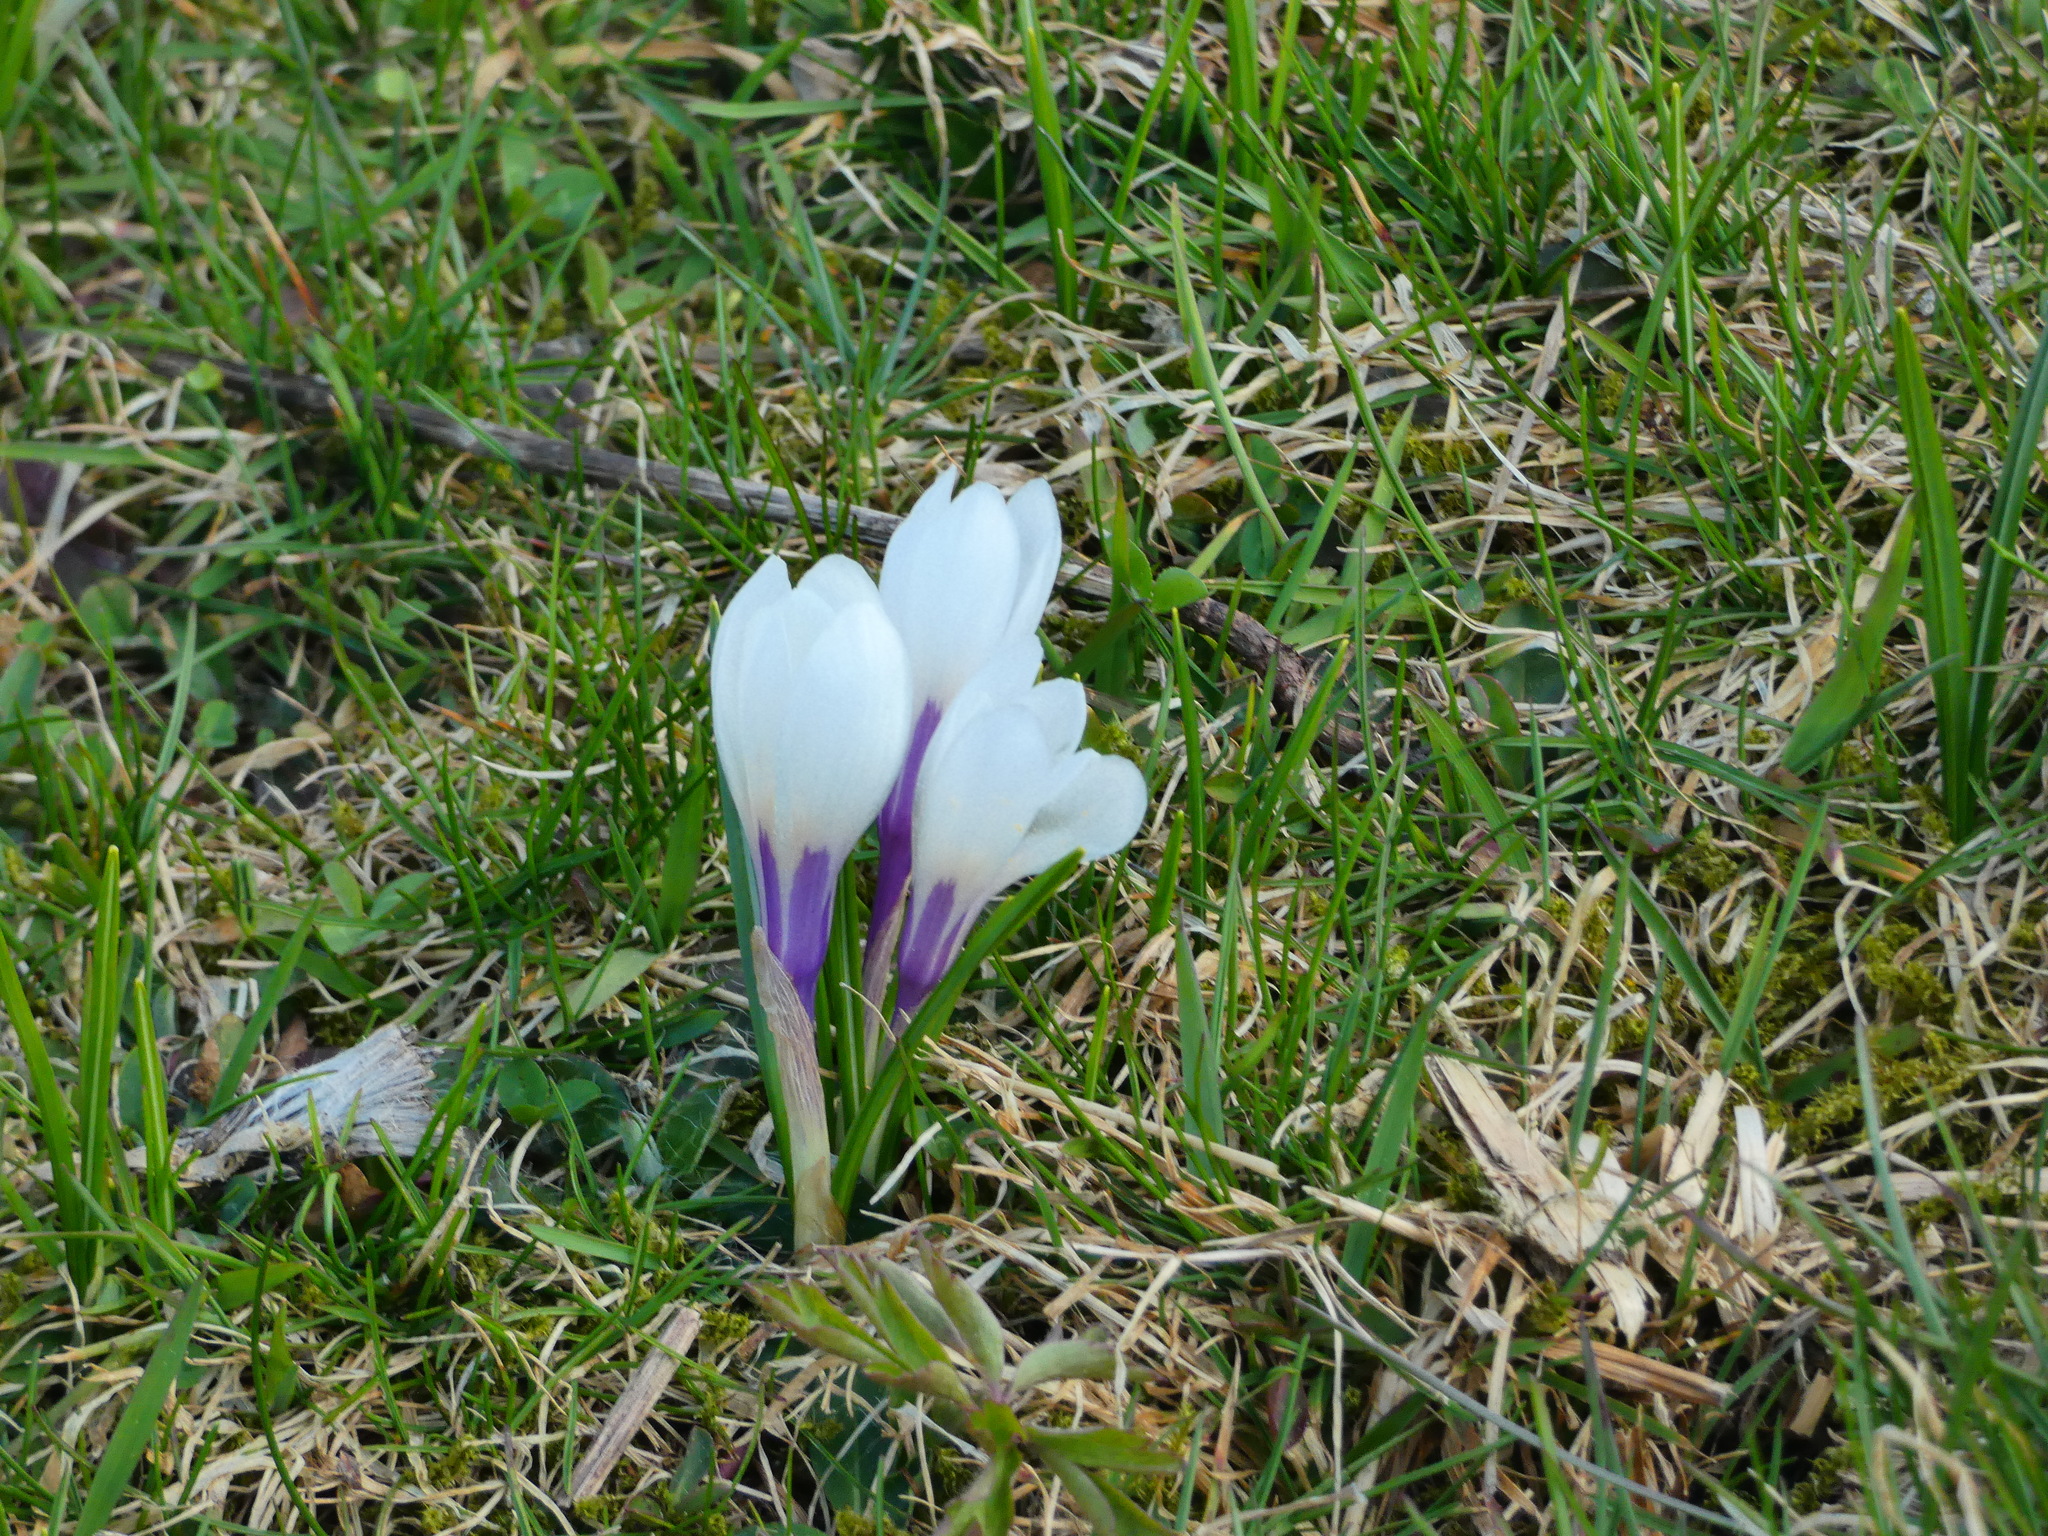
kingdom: Plantae
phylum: Tracheophyta
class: Liliopsida
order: Asparagales
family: Iridaceae
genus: Crocus
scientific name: Crocus vernus
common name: Spring crocus
